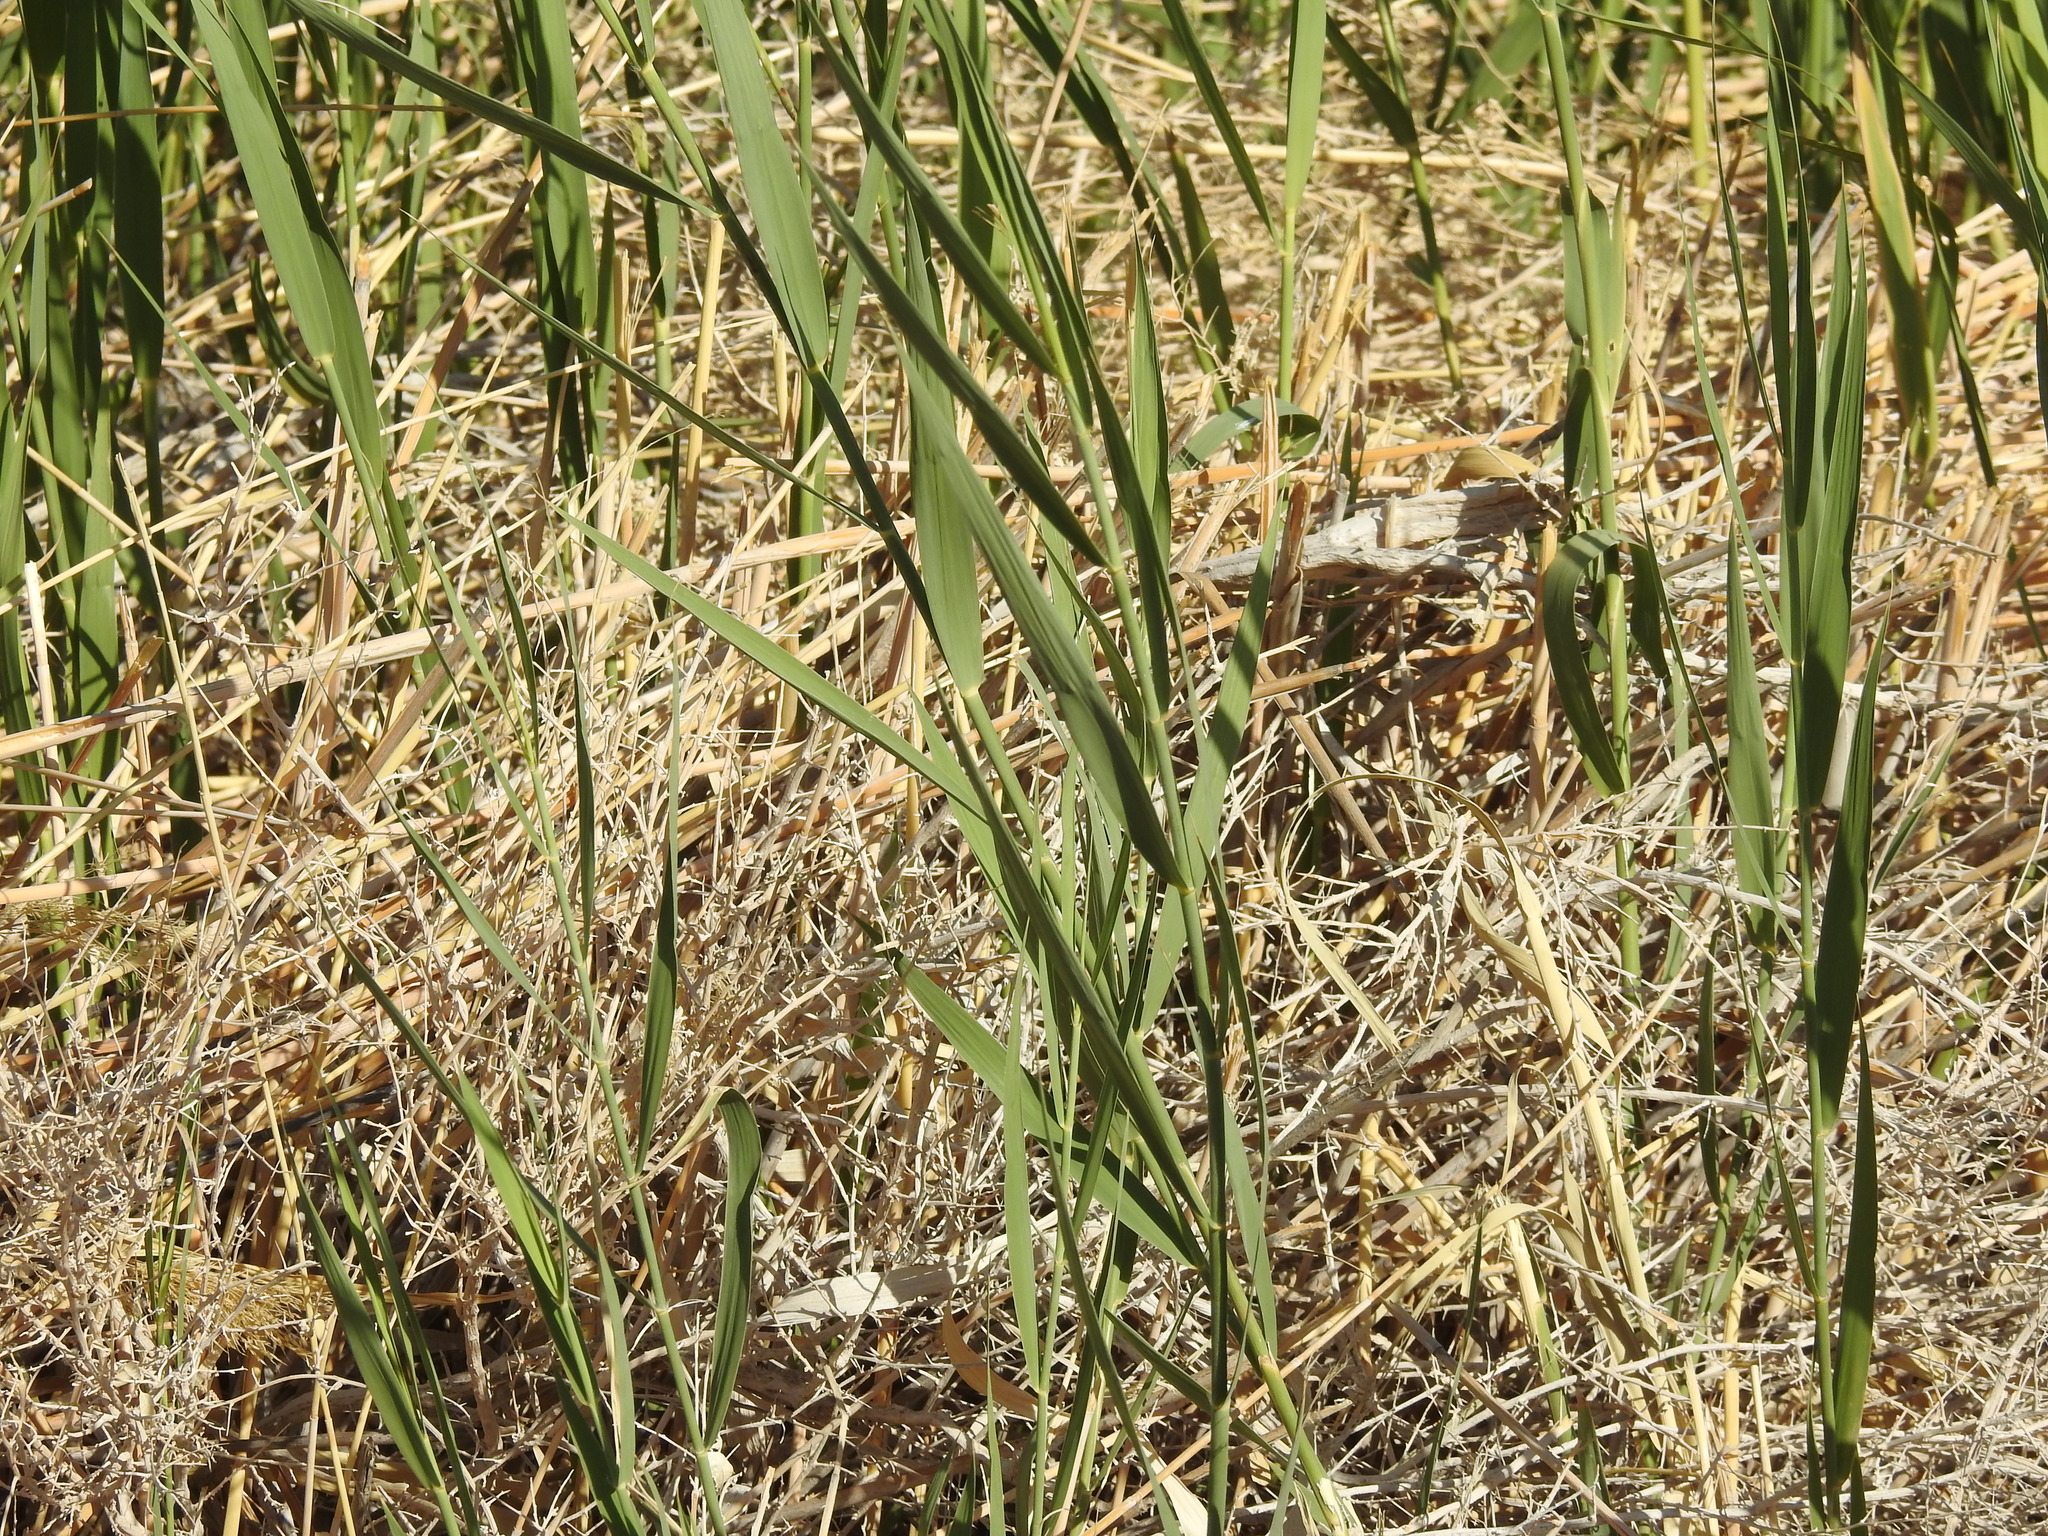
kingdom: Plantae
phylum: Tracheophyta
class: Liliopsida
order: Poales
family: Poaceae
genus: Phragmites
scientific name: Phragmites australis
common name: Common reed
